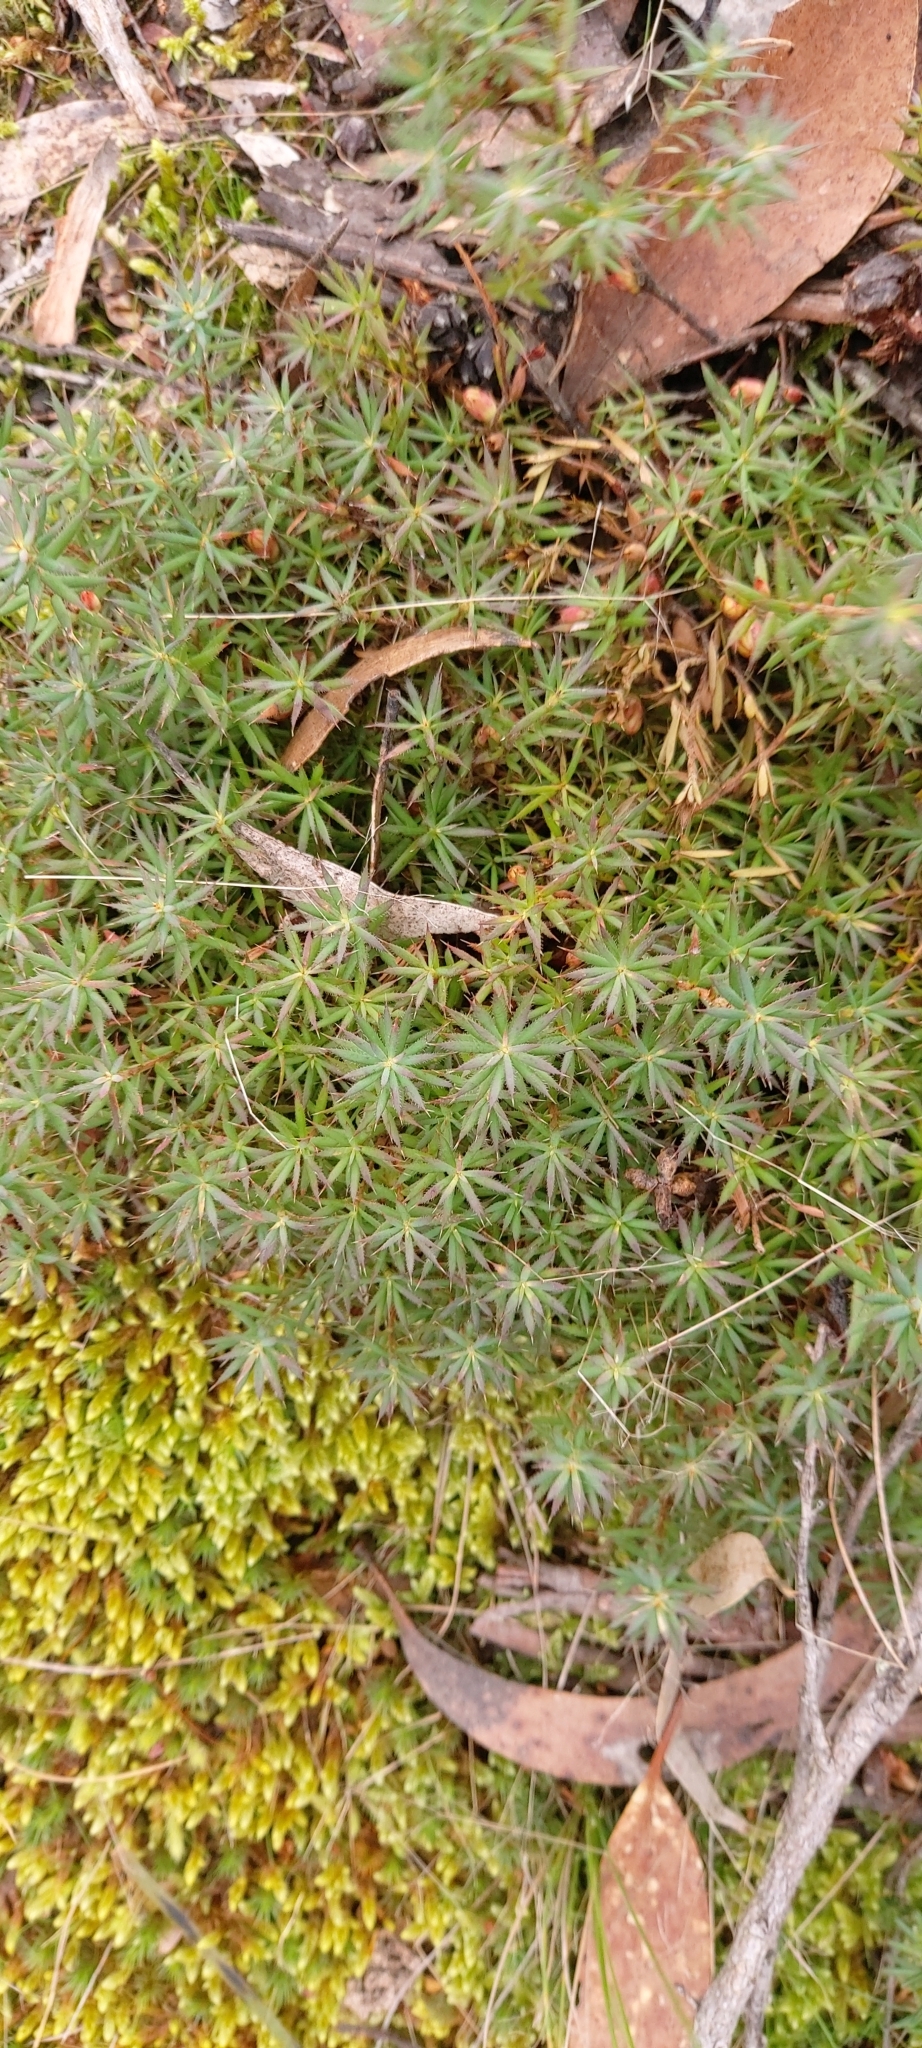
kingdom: Plantae
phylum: Tracheophyta
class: Magnoliopsida
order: Ericales
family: Ericaceae
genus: Styphelia
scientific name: Styphelia humifusa
